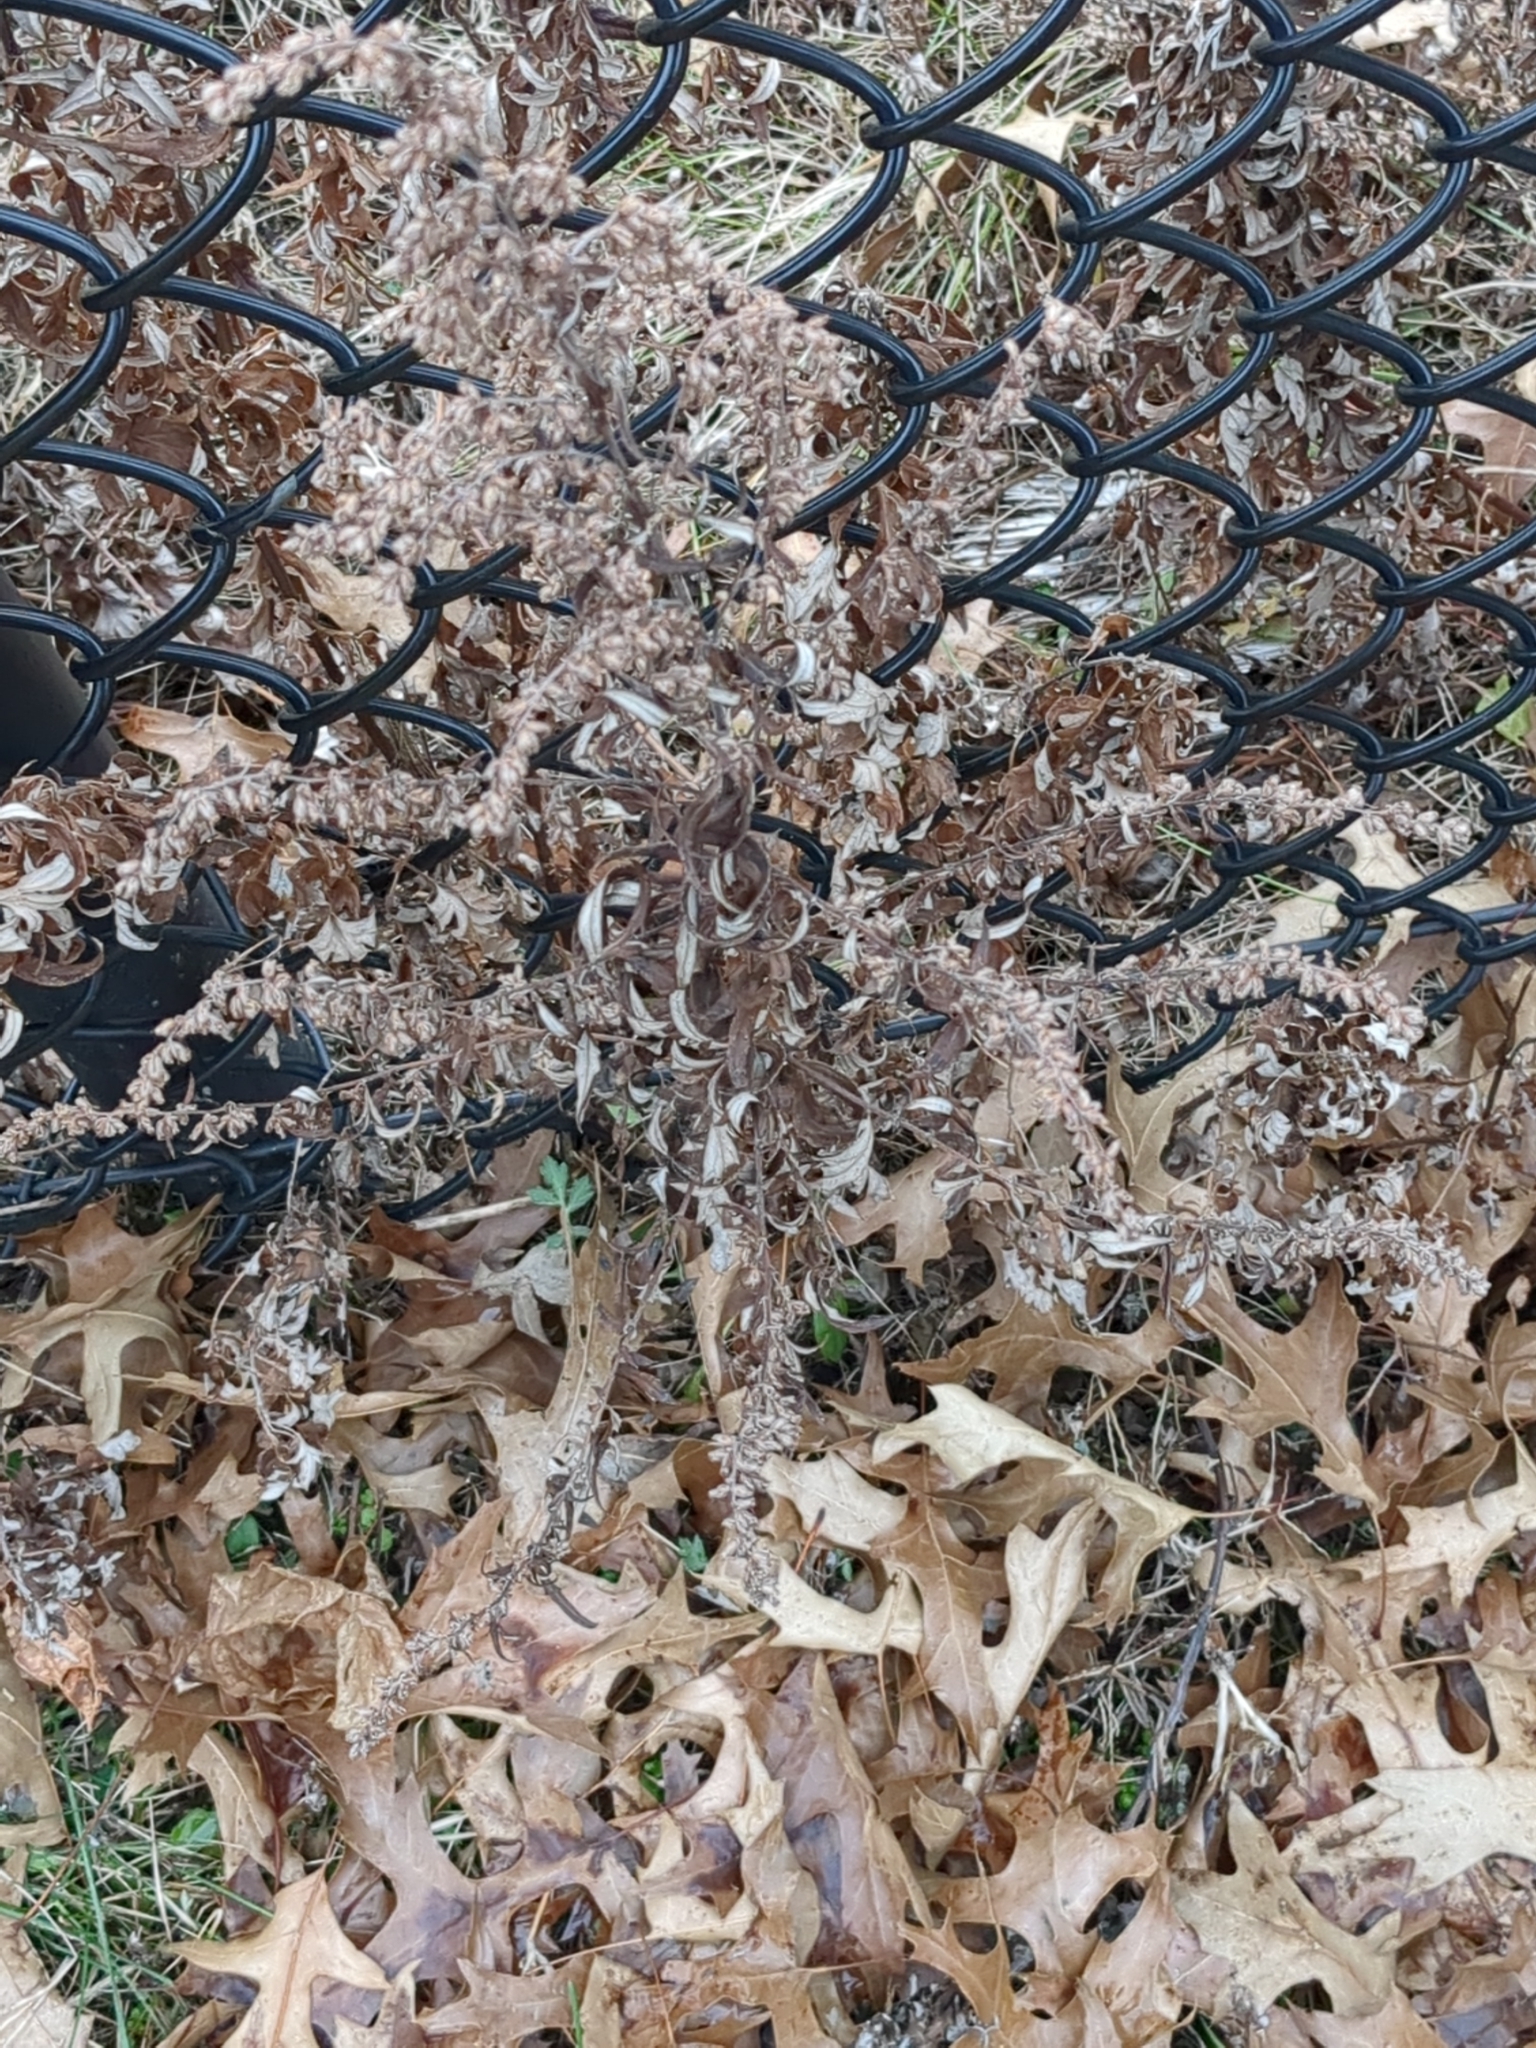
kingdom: Plantae
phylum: Tracheophyta
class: Magnoliopsida
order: Asterales
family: Asteraceae
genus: Artemisia
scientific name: Artemisia vulgaris
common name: Mugwort
